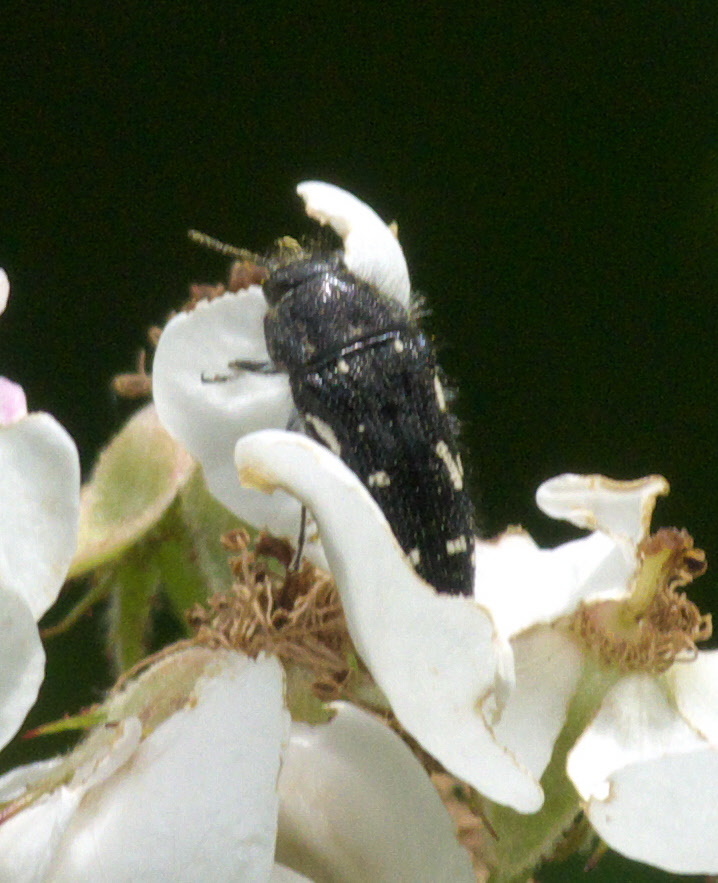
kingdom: Animalia
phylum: Arthropoda
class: Insecta
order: Coleoptera
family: Buprestidae
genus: Acmaeodera
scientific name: Acmaeodera ornata
